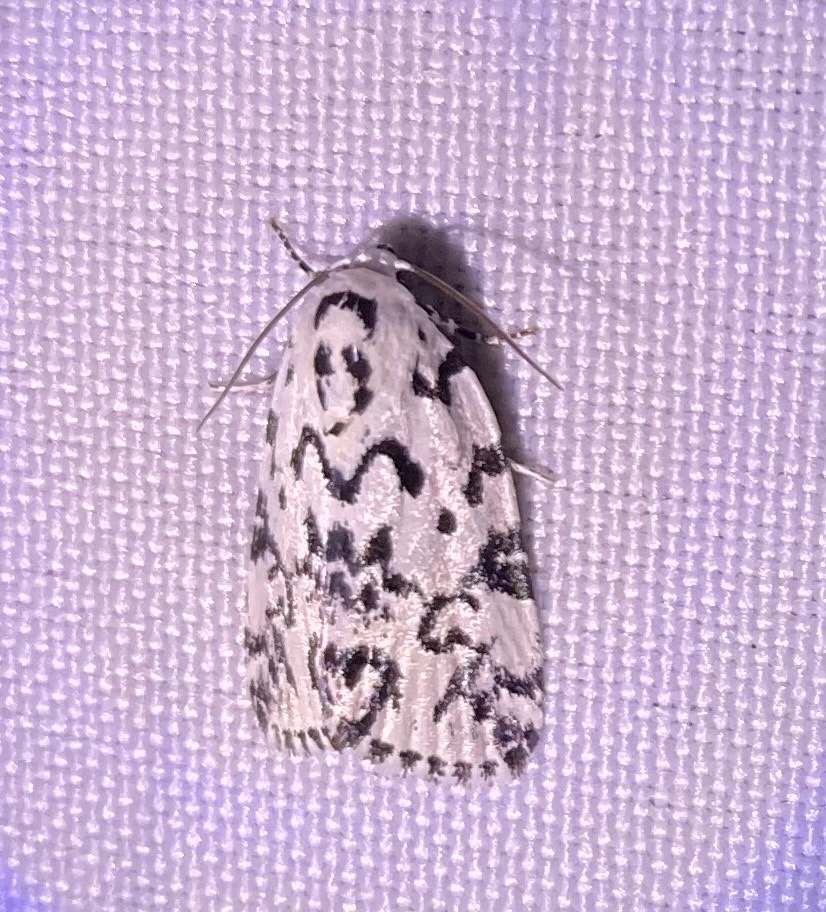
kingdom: Animalia
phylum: Arthropoda
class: Insecta
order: Lepidoptera
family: Noctuidae
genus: Polygrammate
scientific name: Polygrammate hebraeicum
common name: Hebrew moth
